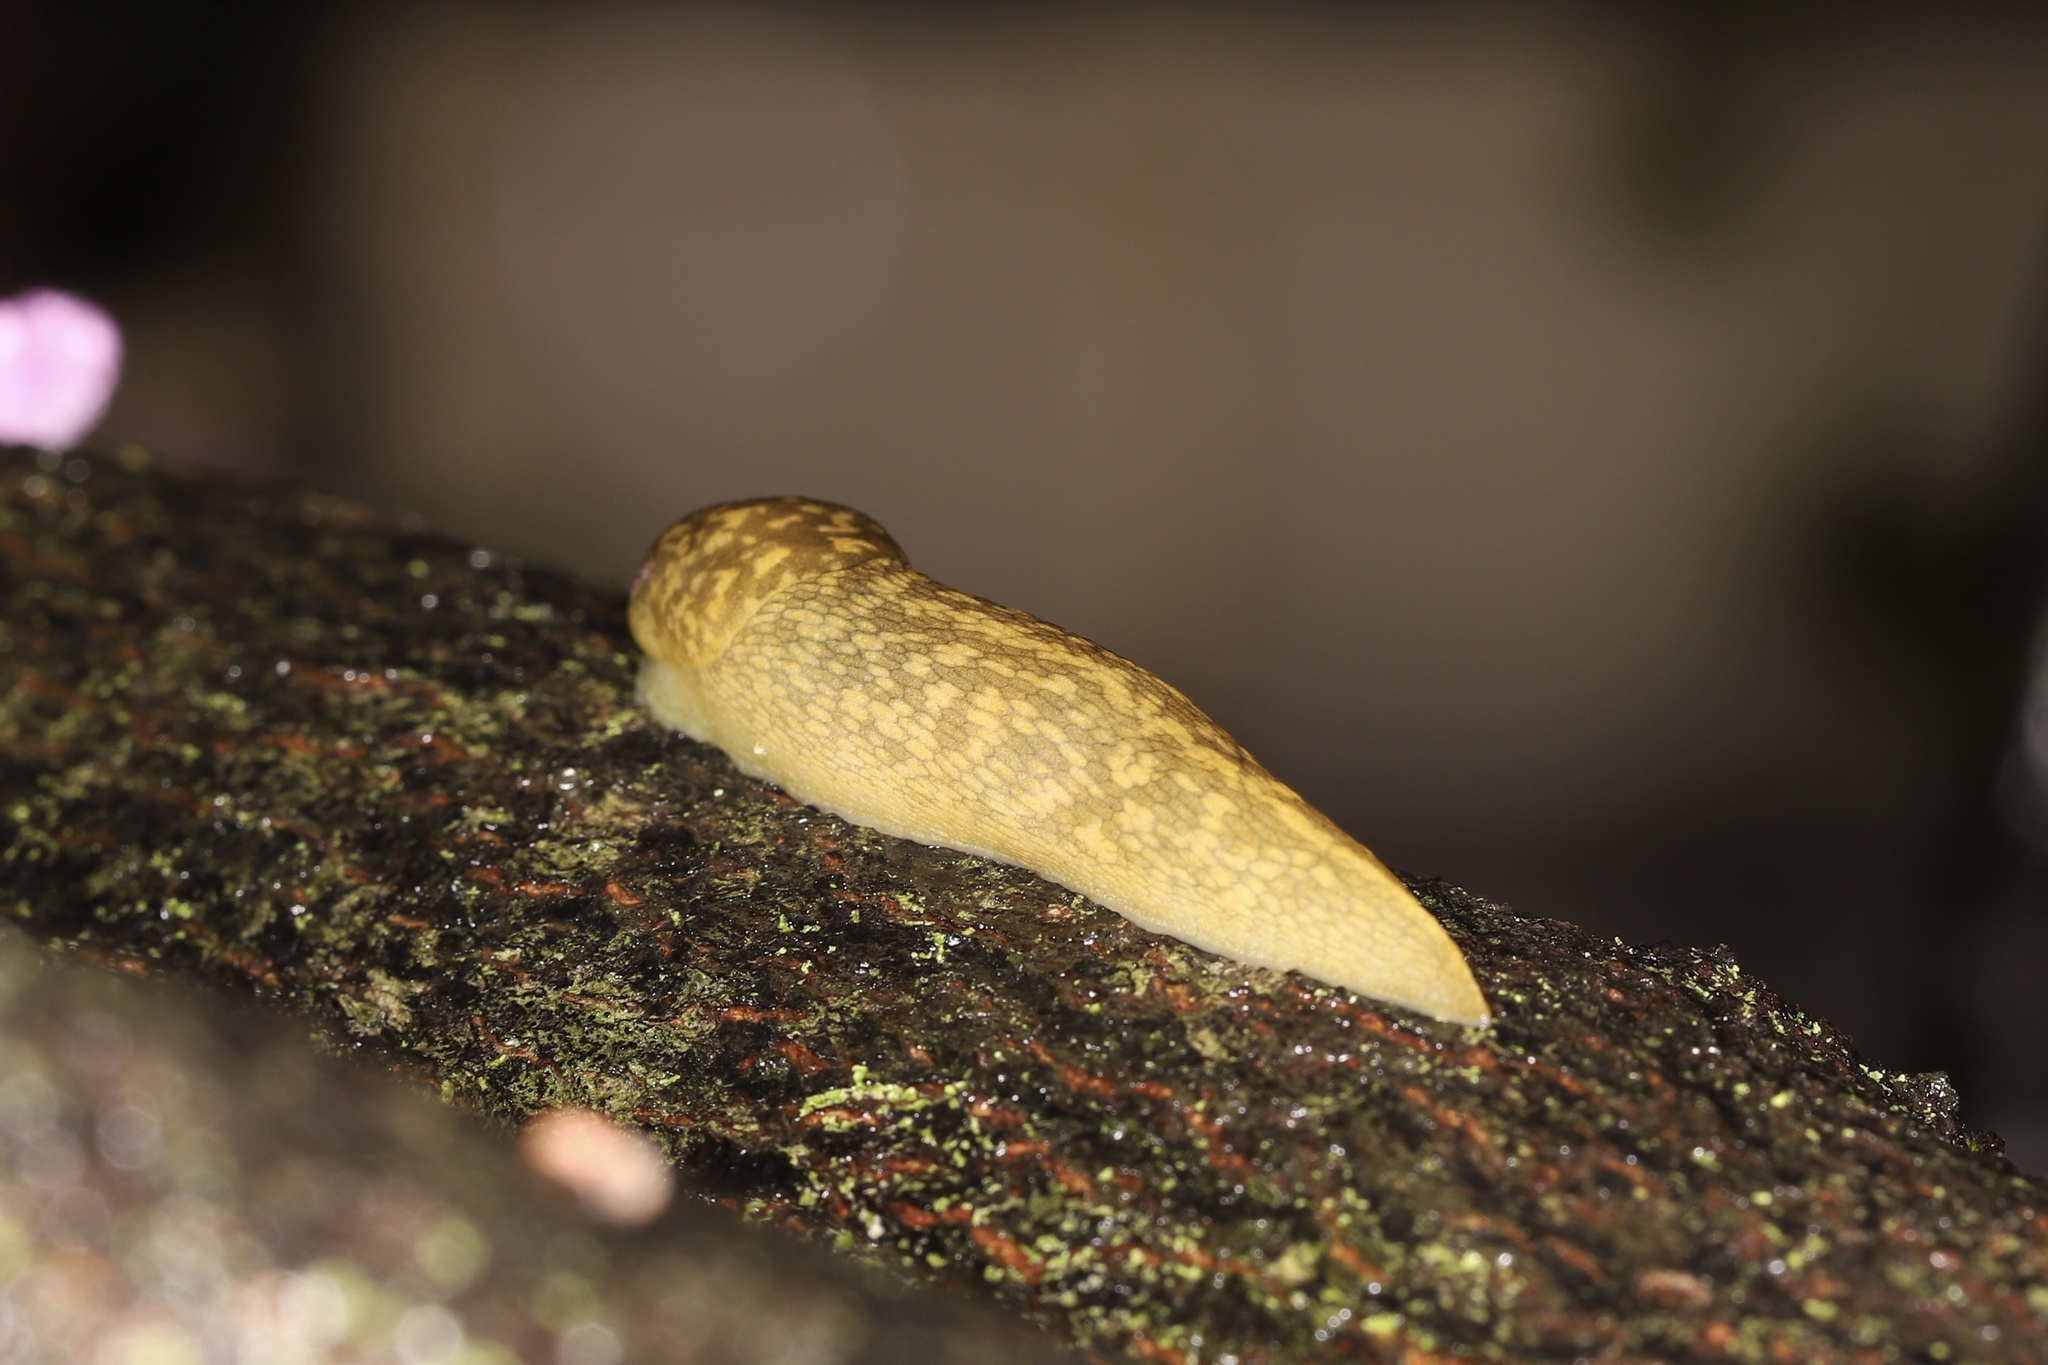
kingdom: Animalia
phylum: Mollusca
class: Gastropoda
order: Stylommatophora
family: Limacidae
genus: Limacus
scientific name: Limacus flavus
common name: Yellow gardenslug
